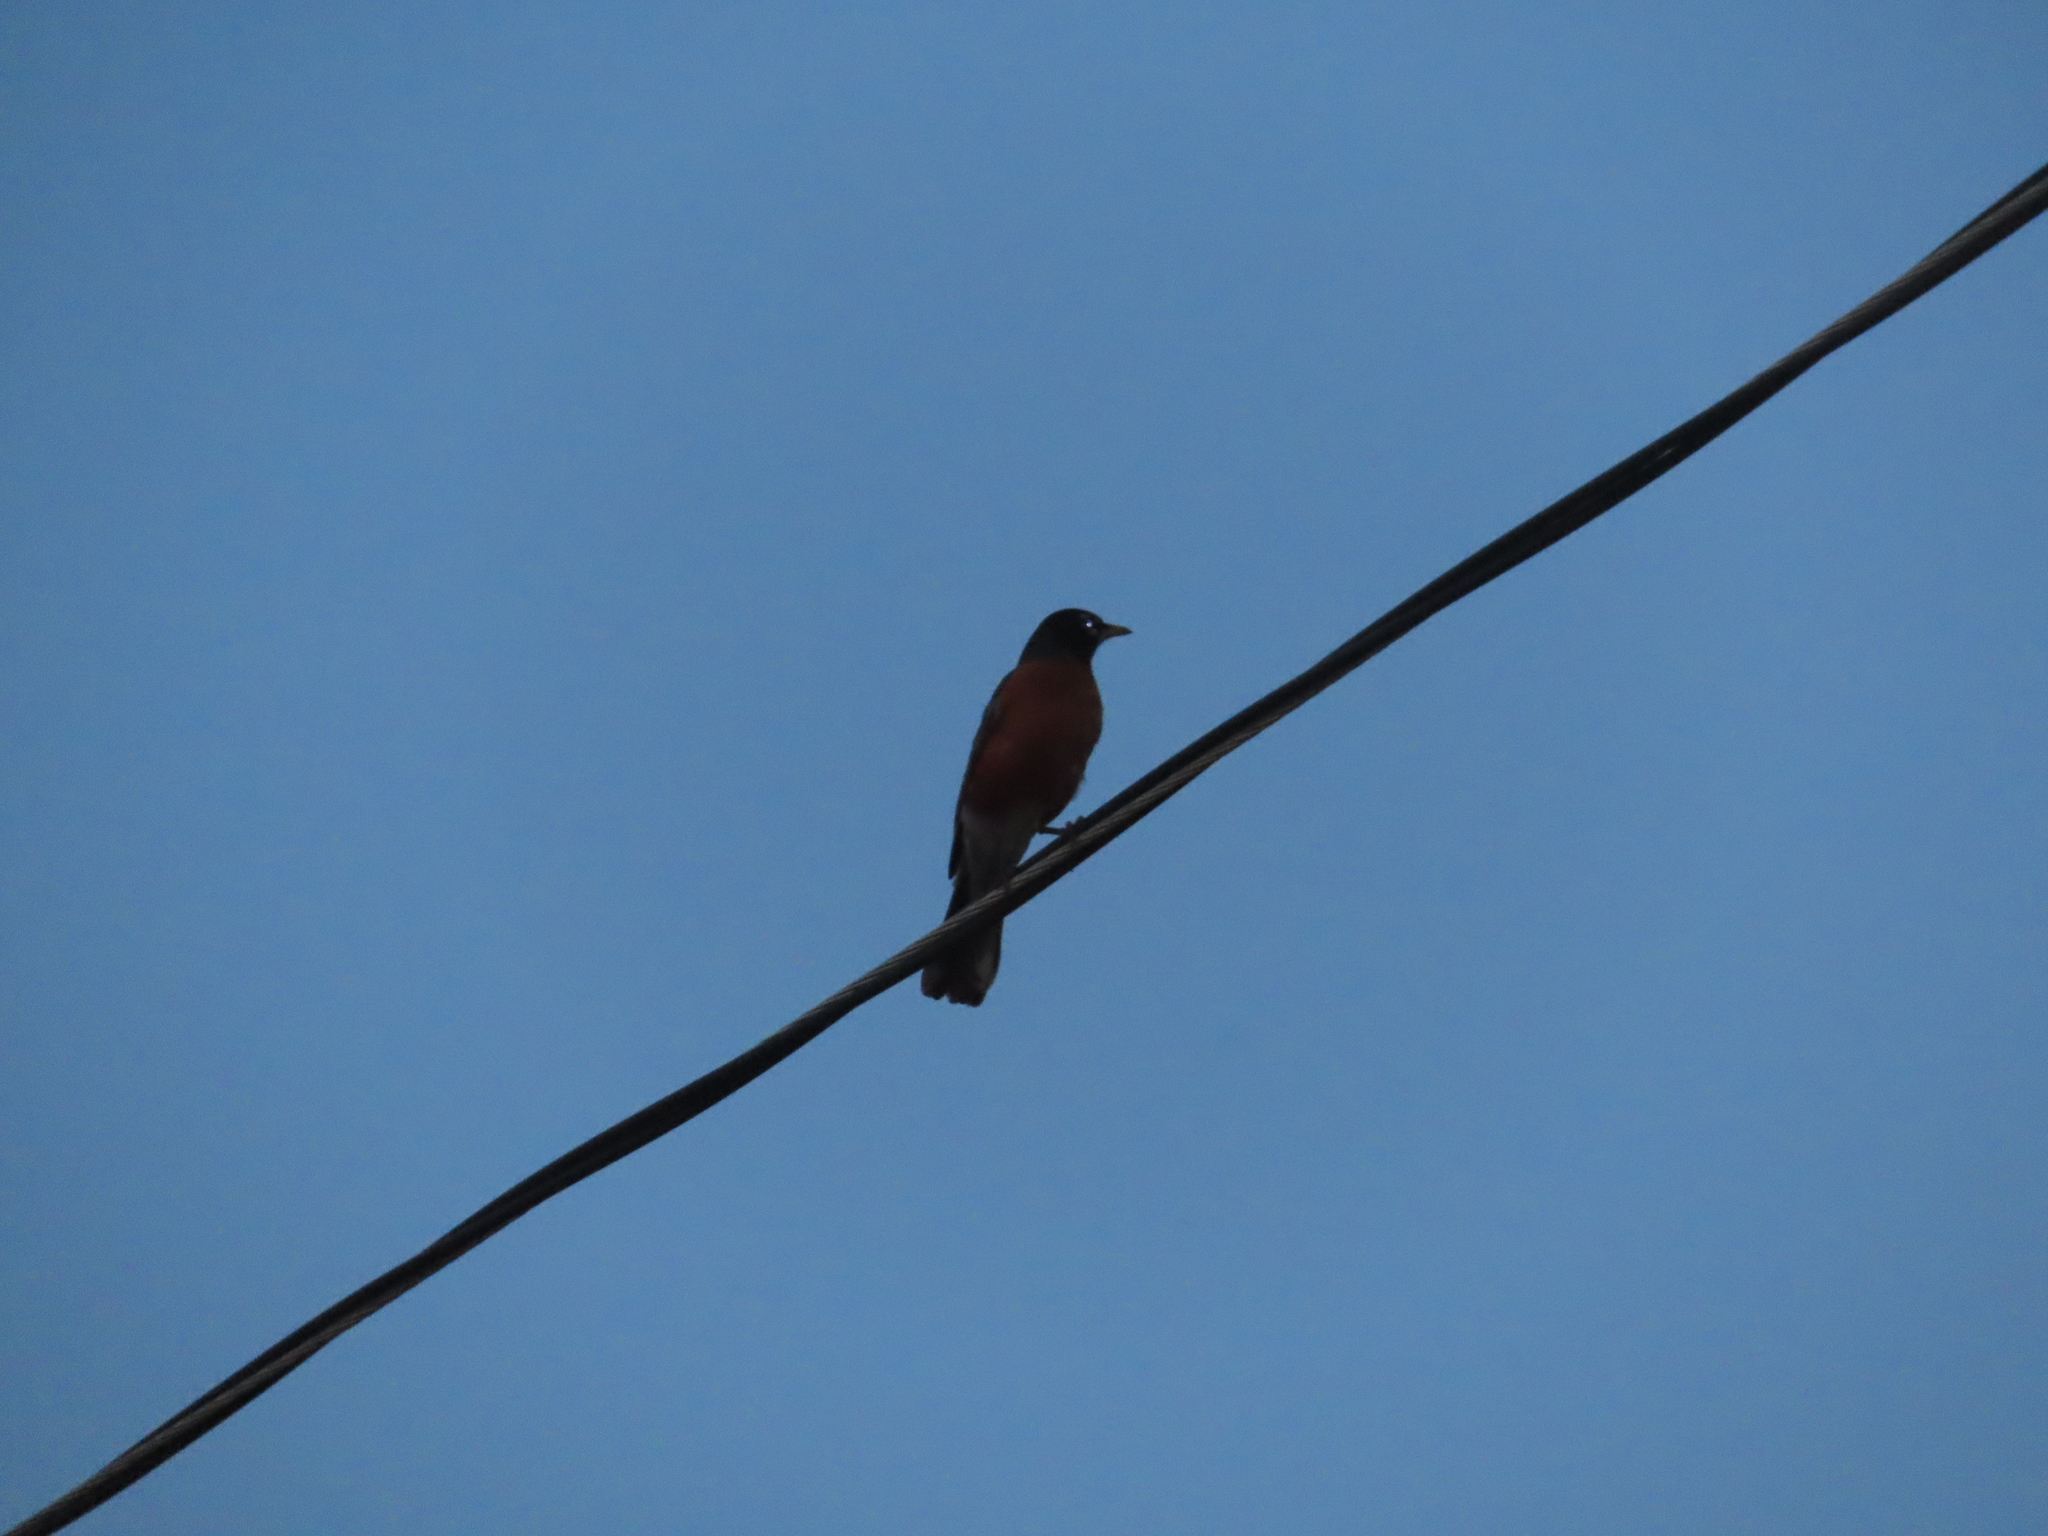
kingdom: Animalia
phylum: Chordata
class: Aves
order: Passeriformes
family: Turdidae
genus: Turdus
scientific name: Turdus migratorius
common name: American robin
